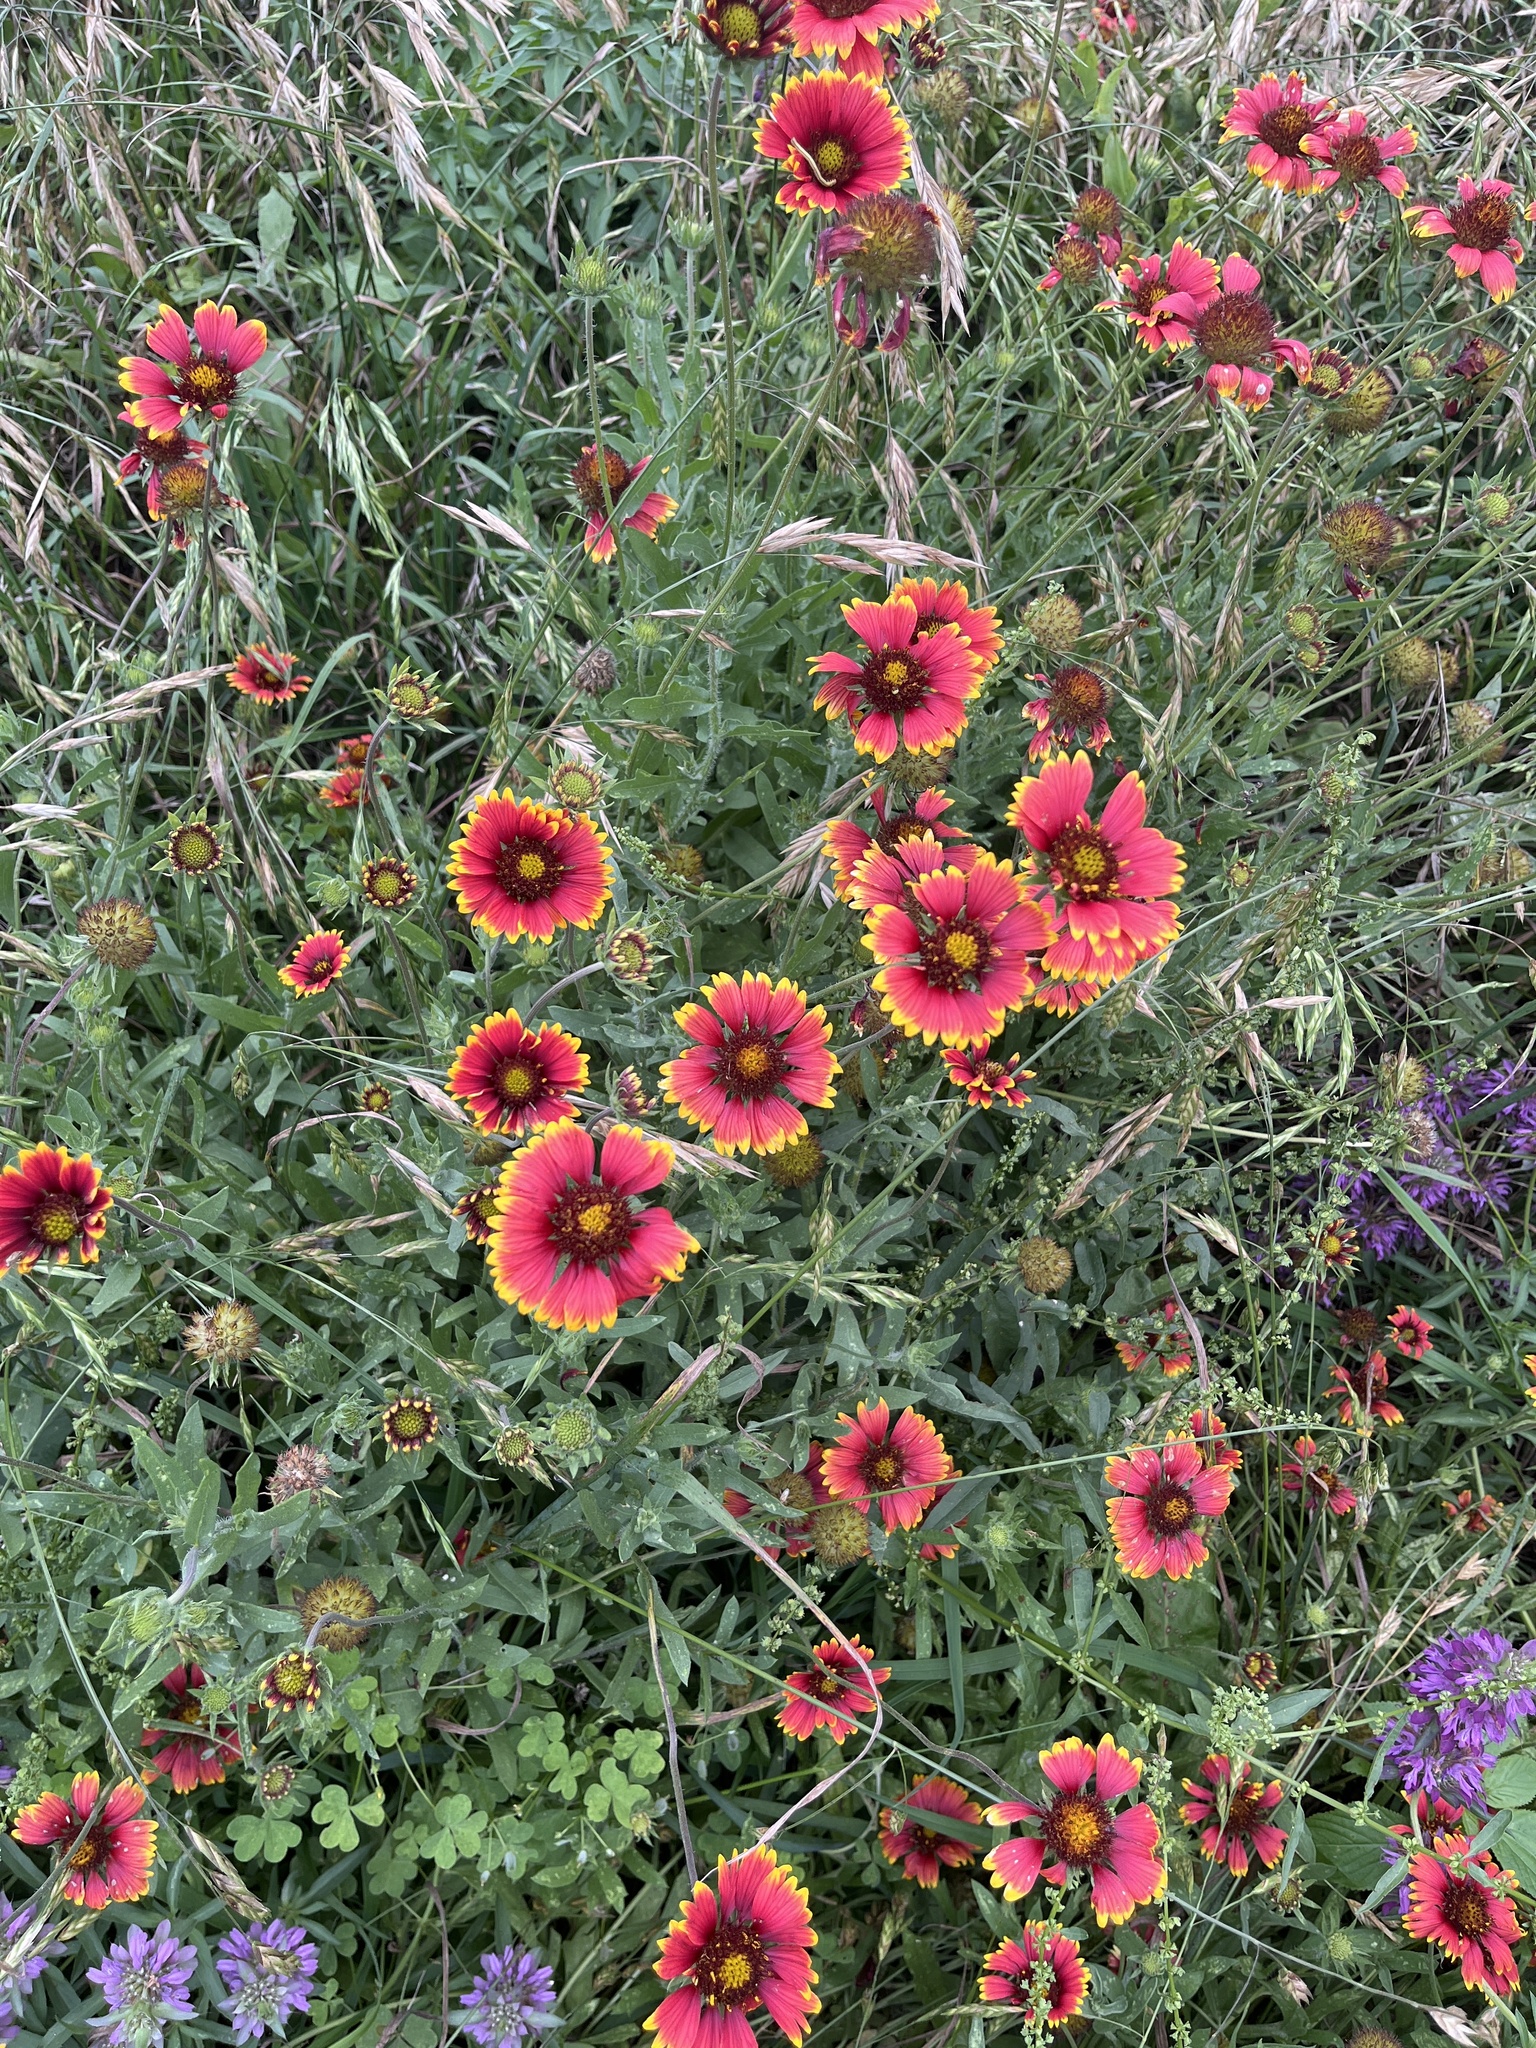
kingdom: Plantae
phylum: Tracheophyta
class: Magnoliopsida
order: Asterales
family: Asteraceae
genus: Gaillardia
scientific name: Gaillardia pulchella
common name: Firewheel
